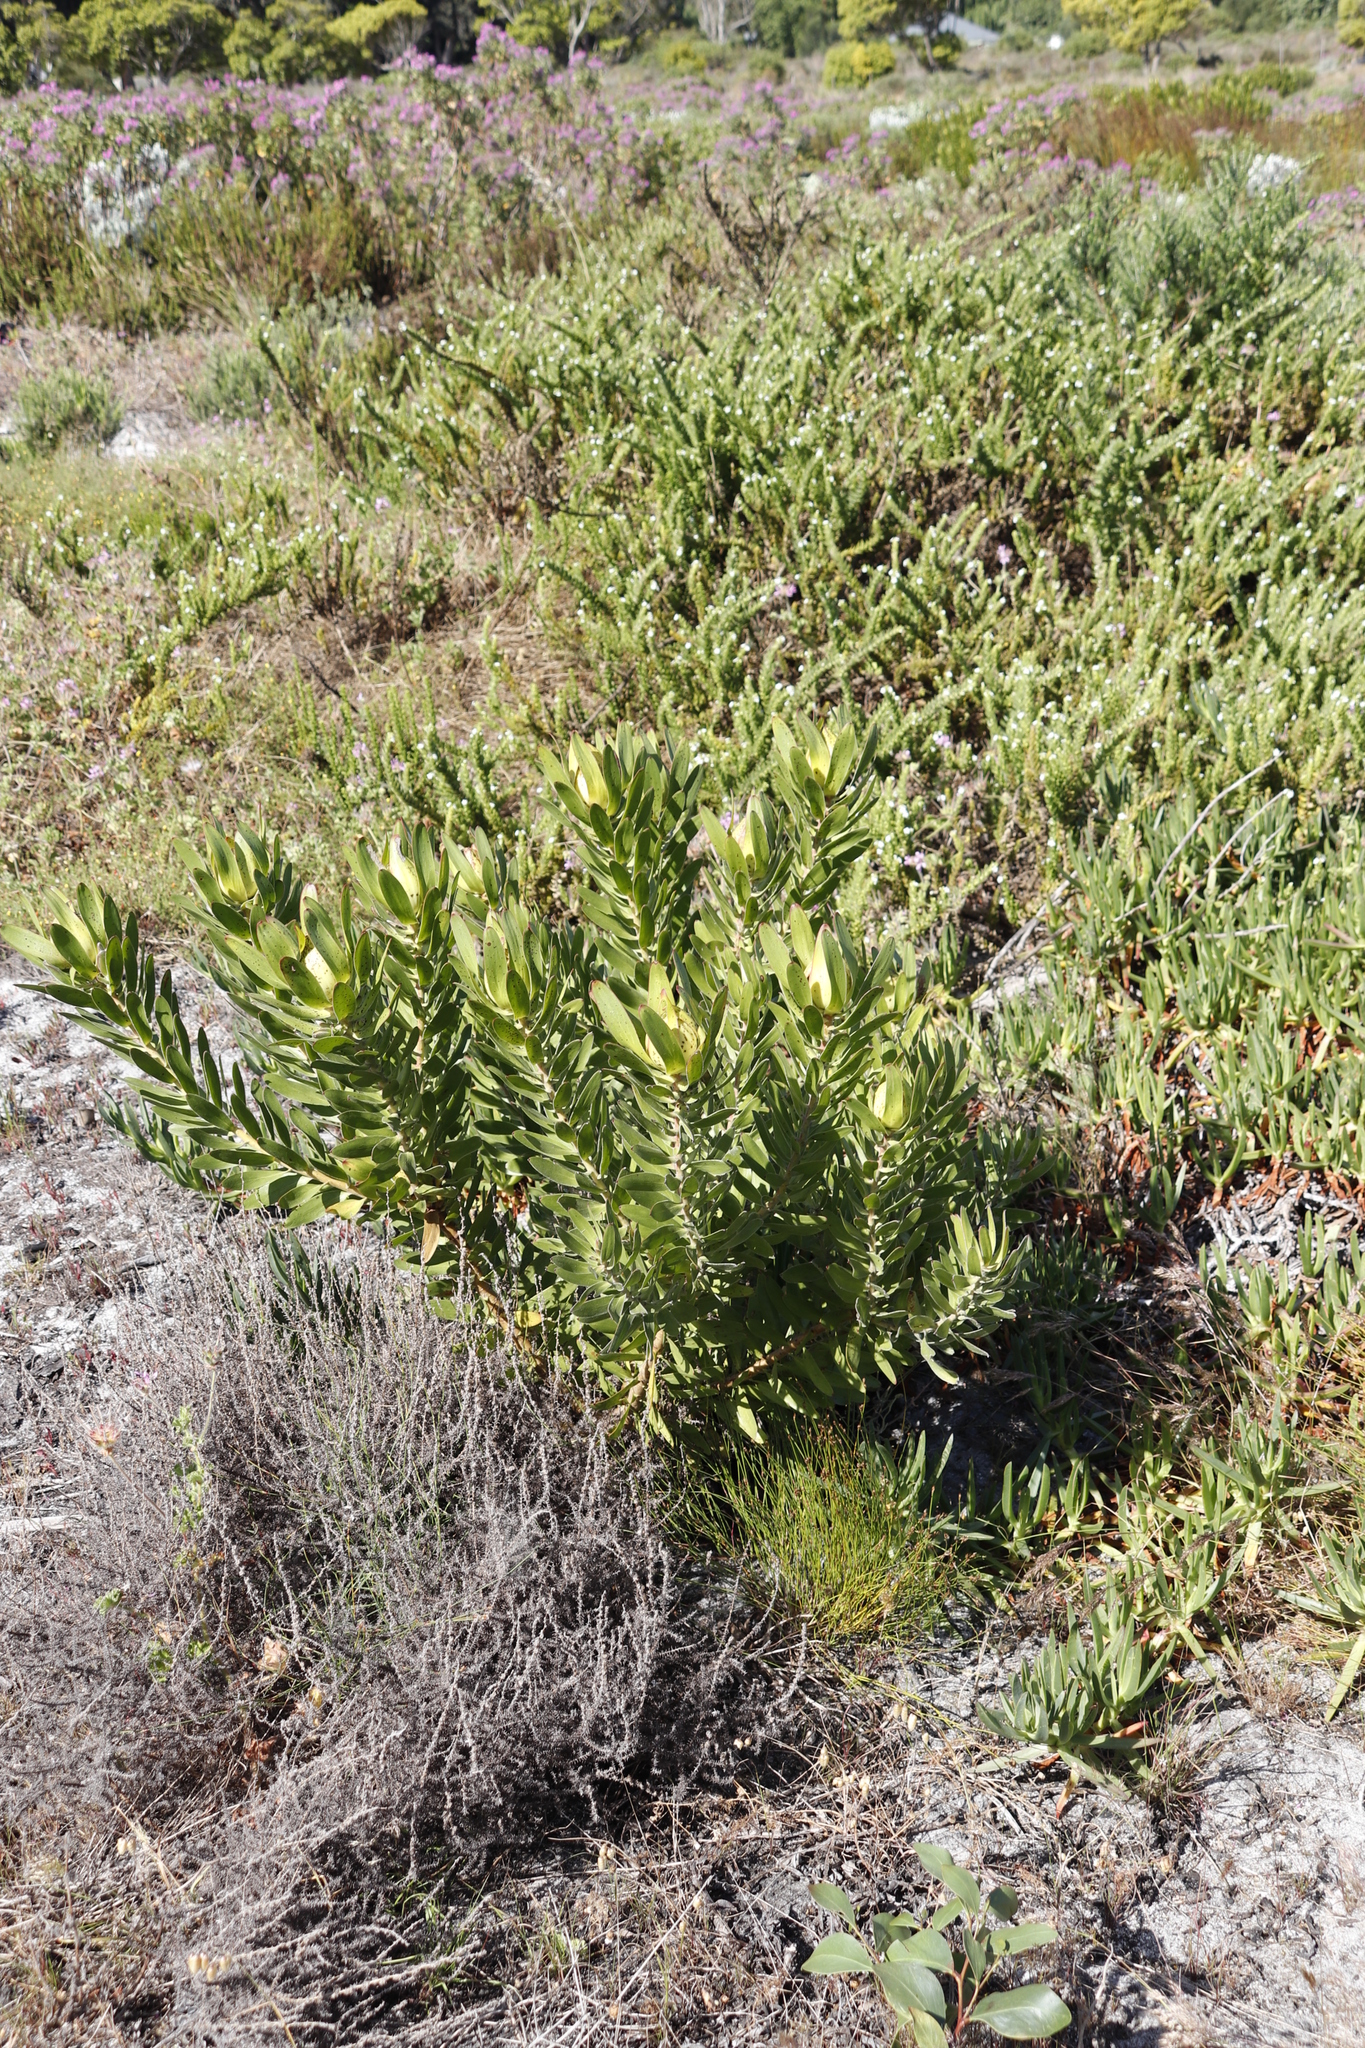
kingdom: Plantae
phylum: Tracheophyta
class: Magnoliopsida
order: Proteales
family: Proteaceae
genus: Leucadendron
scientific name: Leucadendron laureolum
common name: Golden sunshinebush
